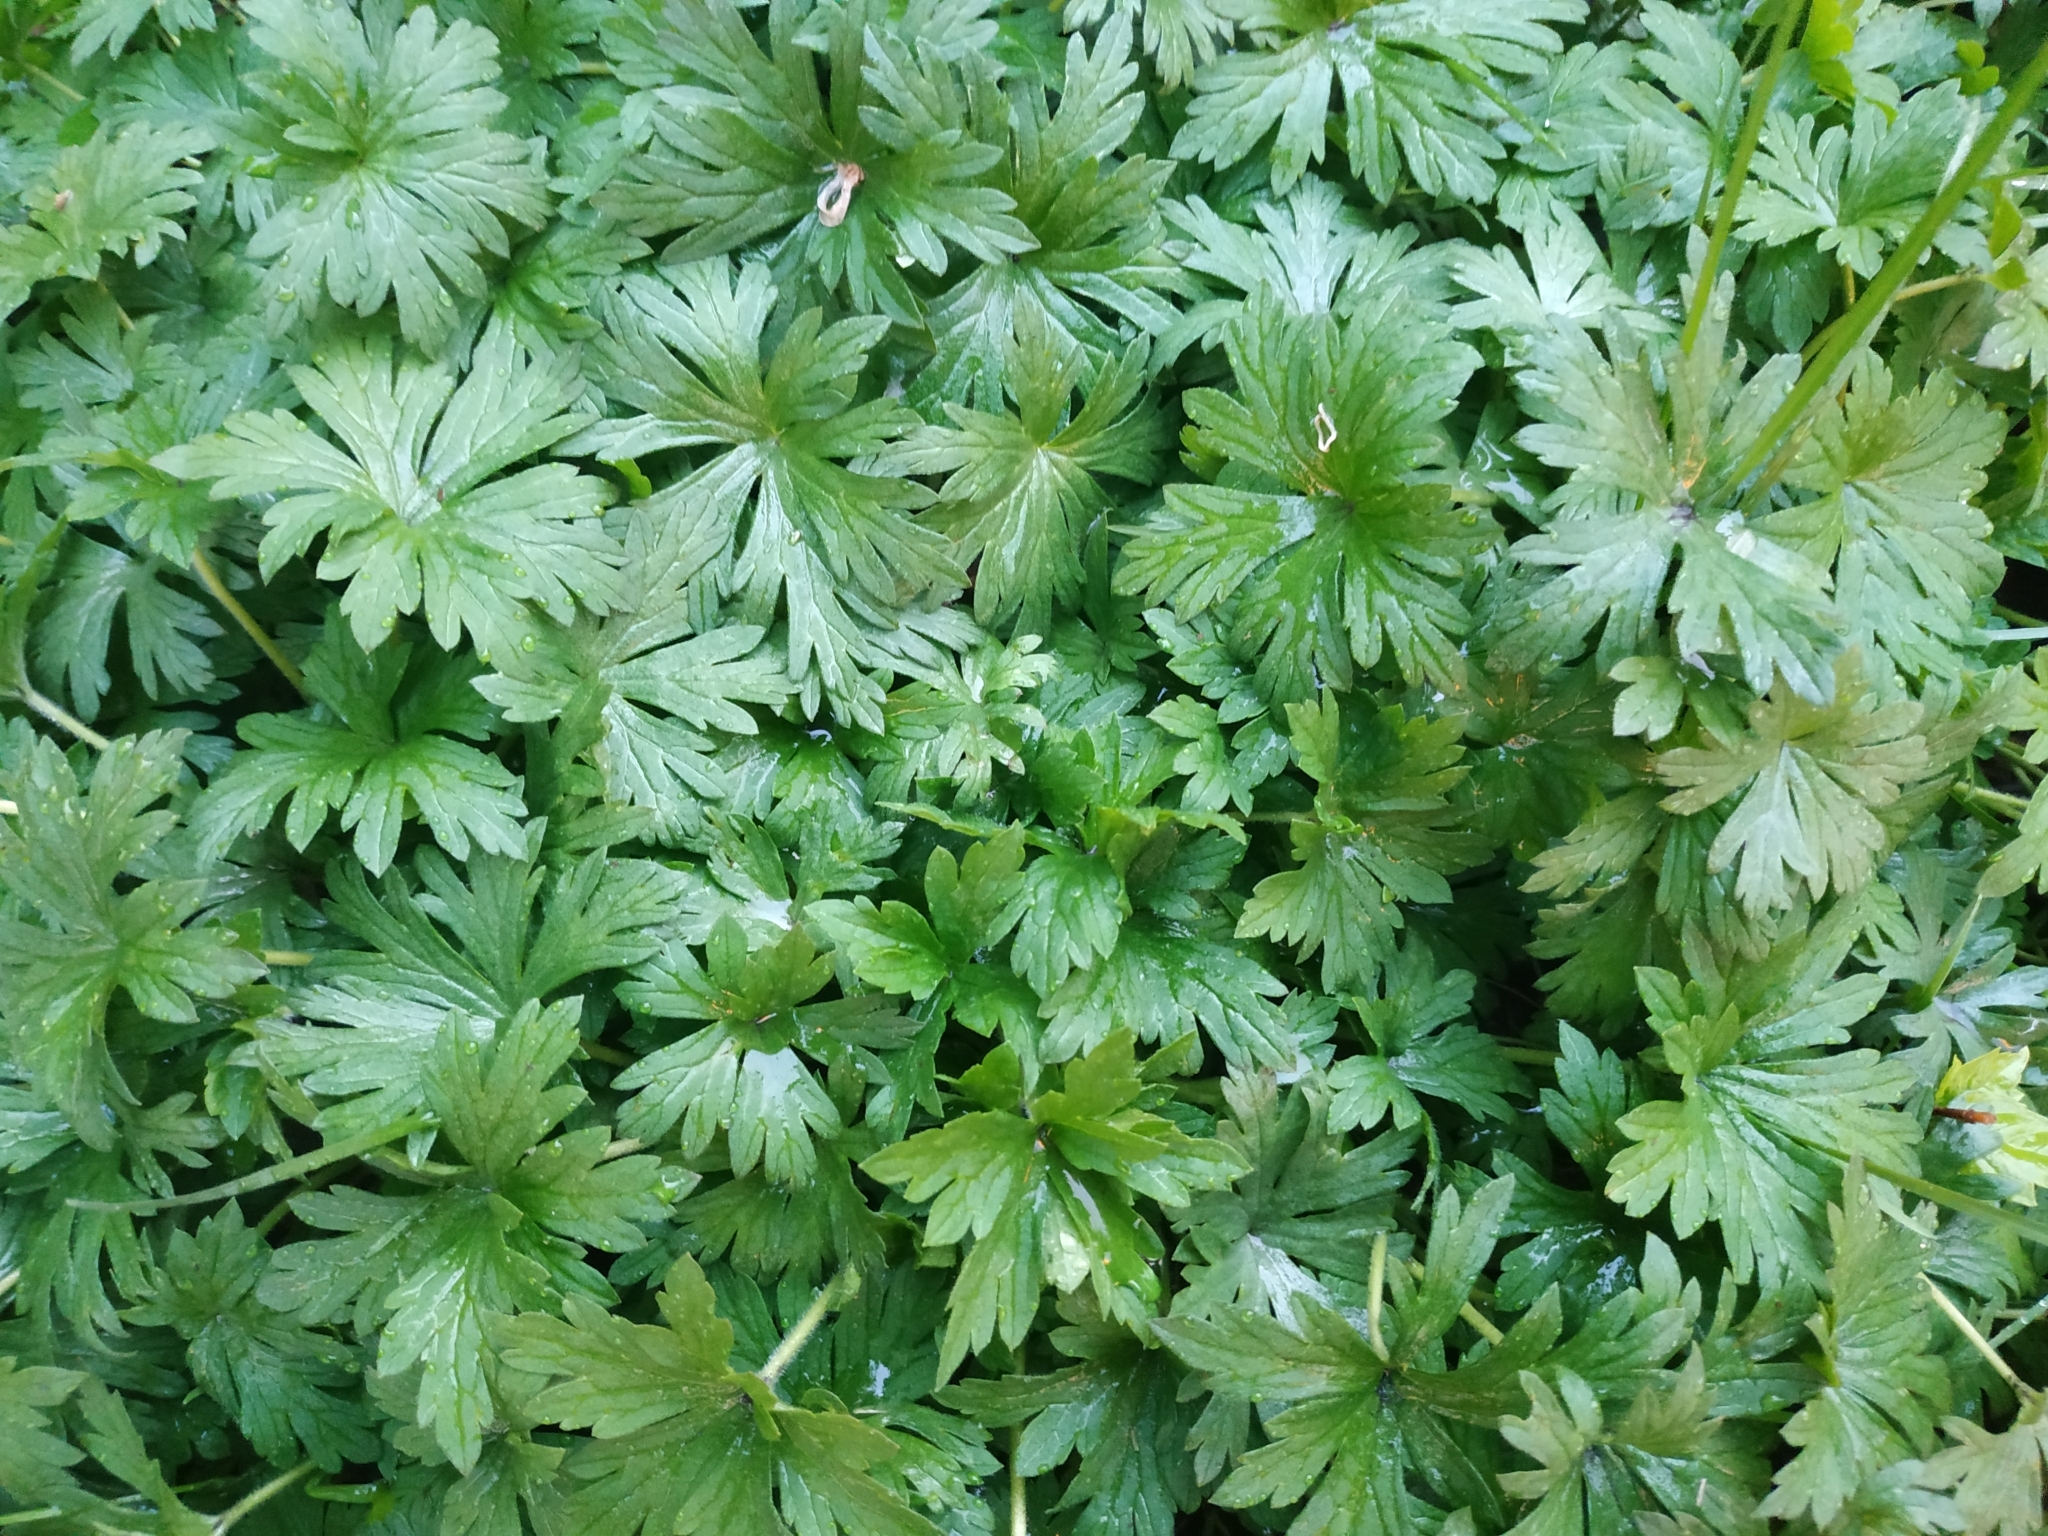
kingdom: Plantae
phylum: Tracheophyta
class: Magnoliopsida
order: Geraniales
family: Geraniaceae
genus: Geranium
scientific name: Geranium sibiricum
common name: Siberian crane's-bill
